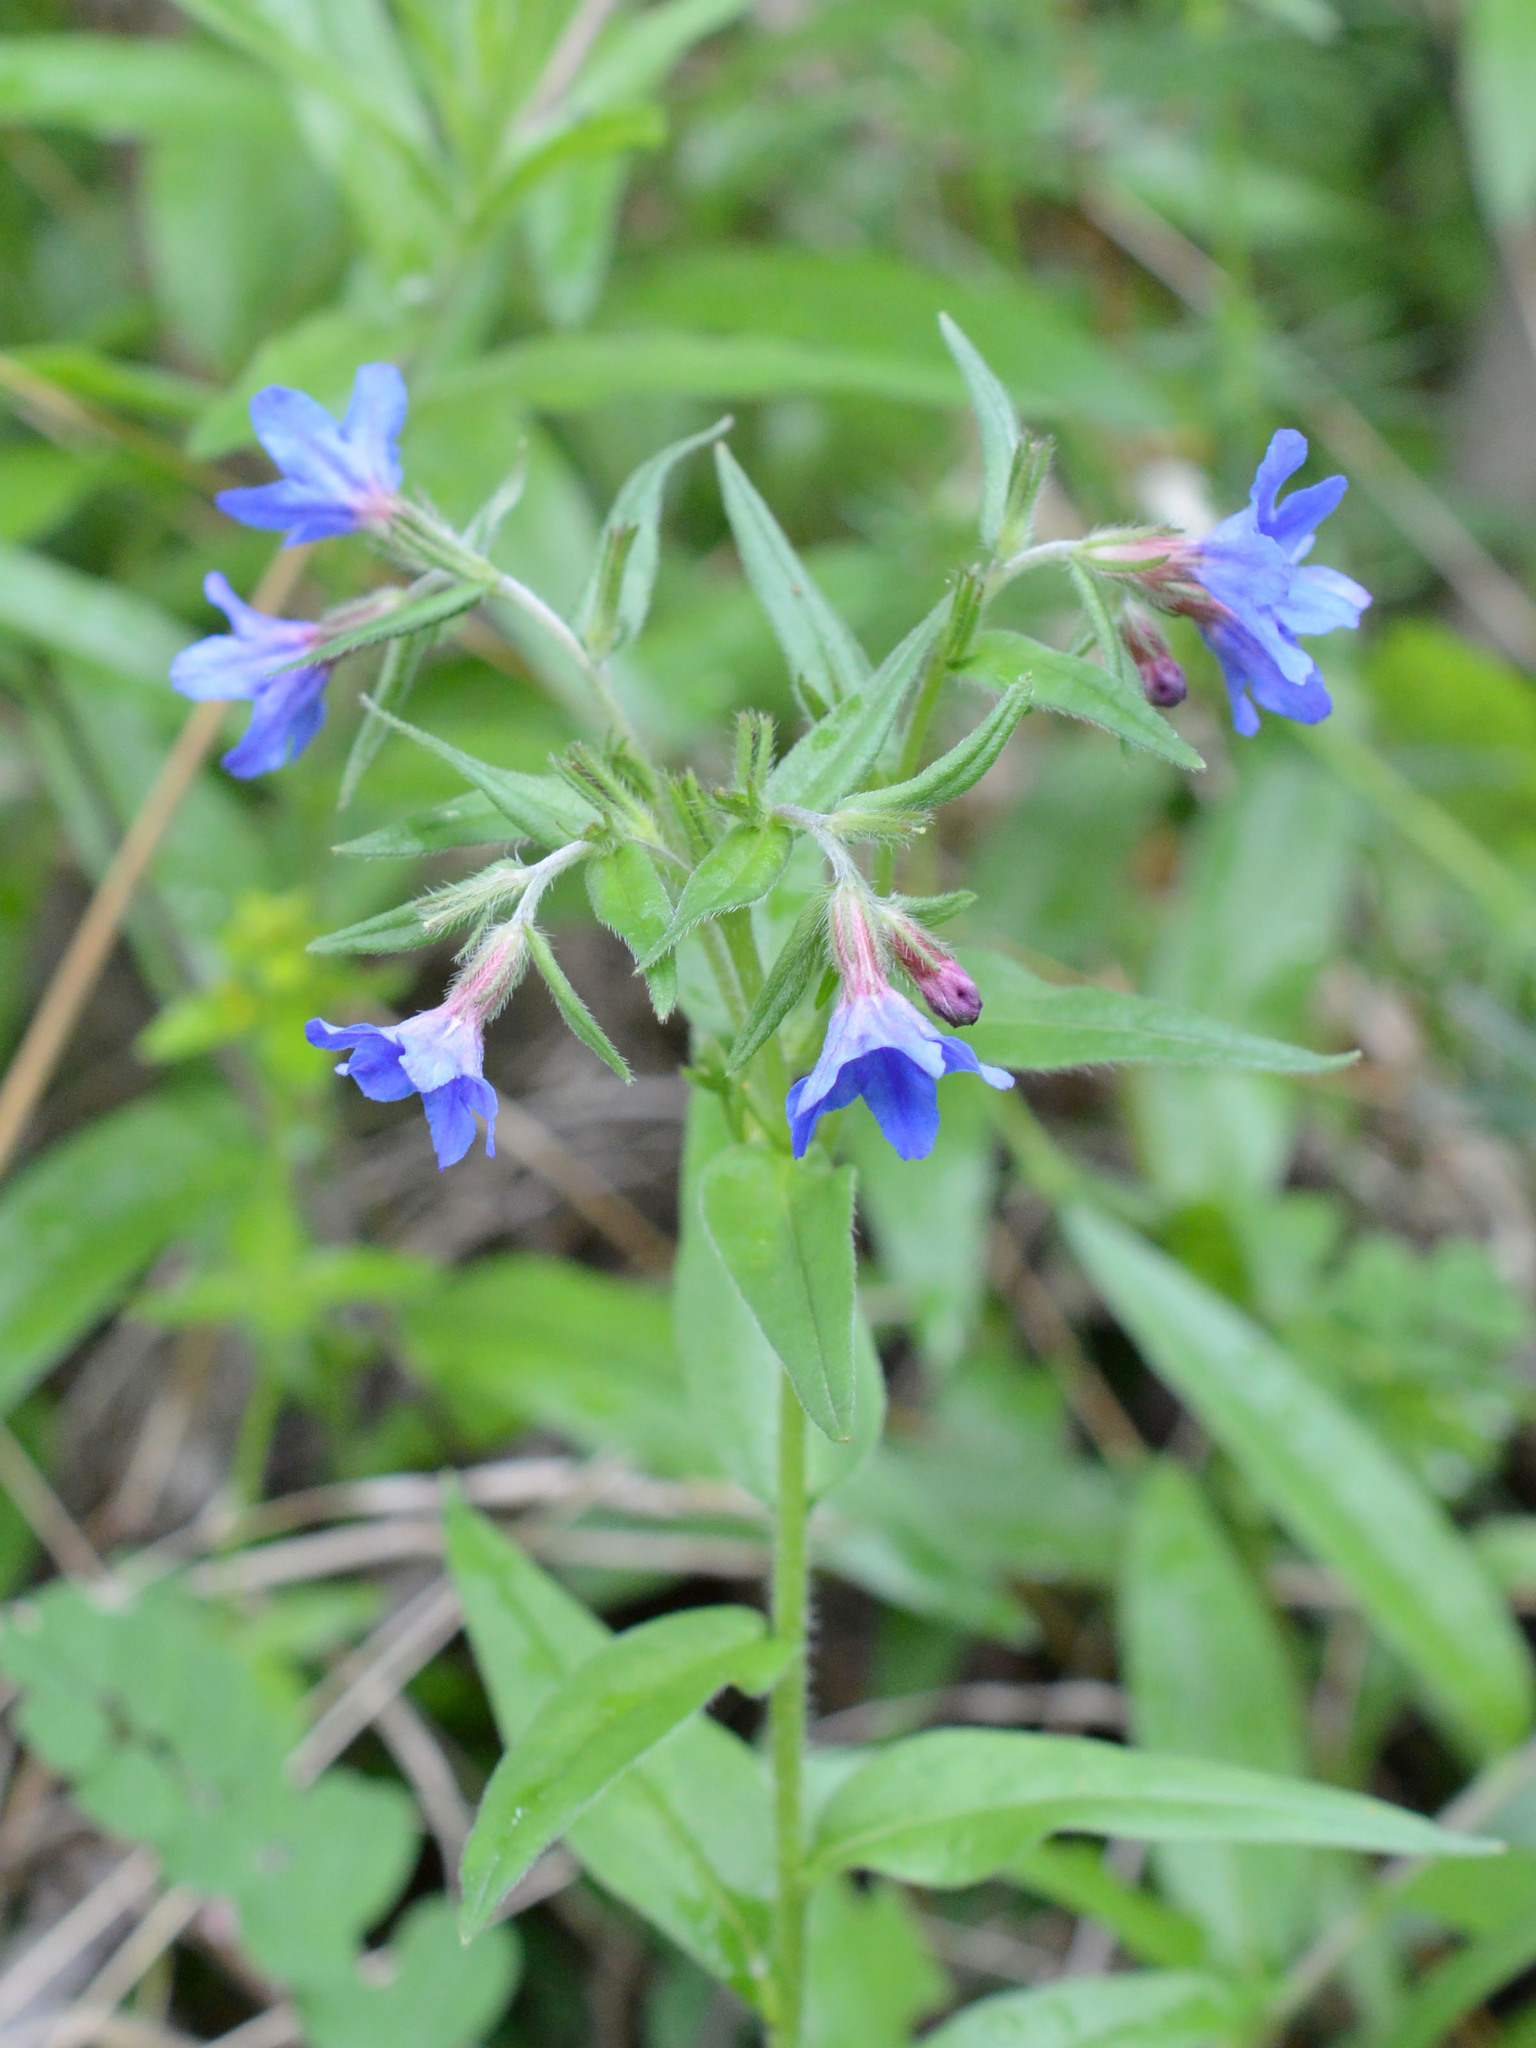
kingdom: Plantae
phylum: Tracheophyta
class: Magnoliopsida
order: Boraginales
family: Boraginaceae
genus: Aegonychon
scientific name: Aegonychon purpurocaeruleum
